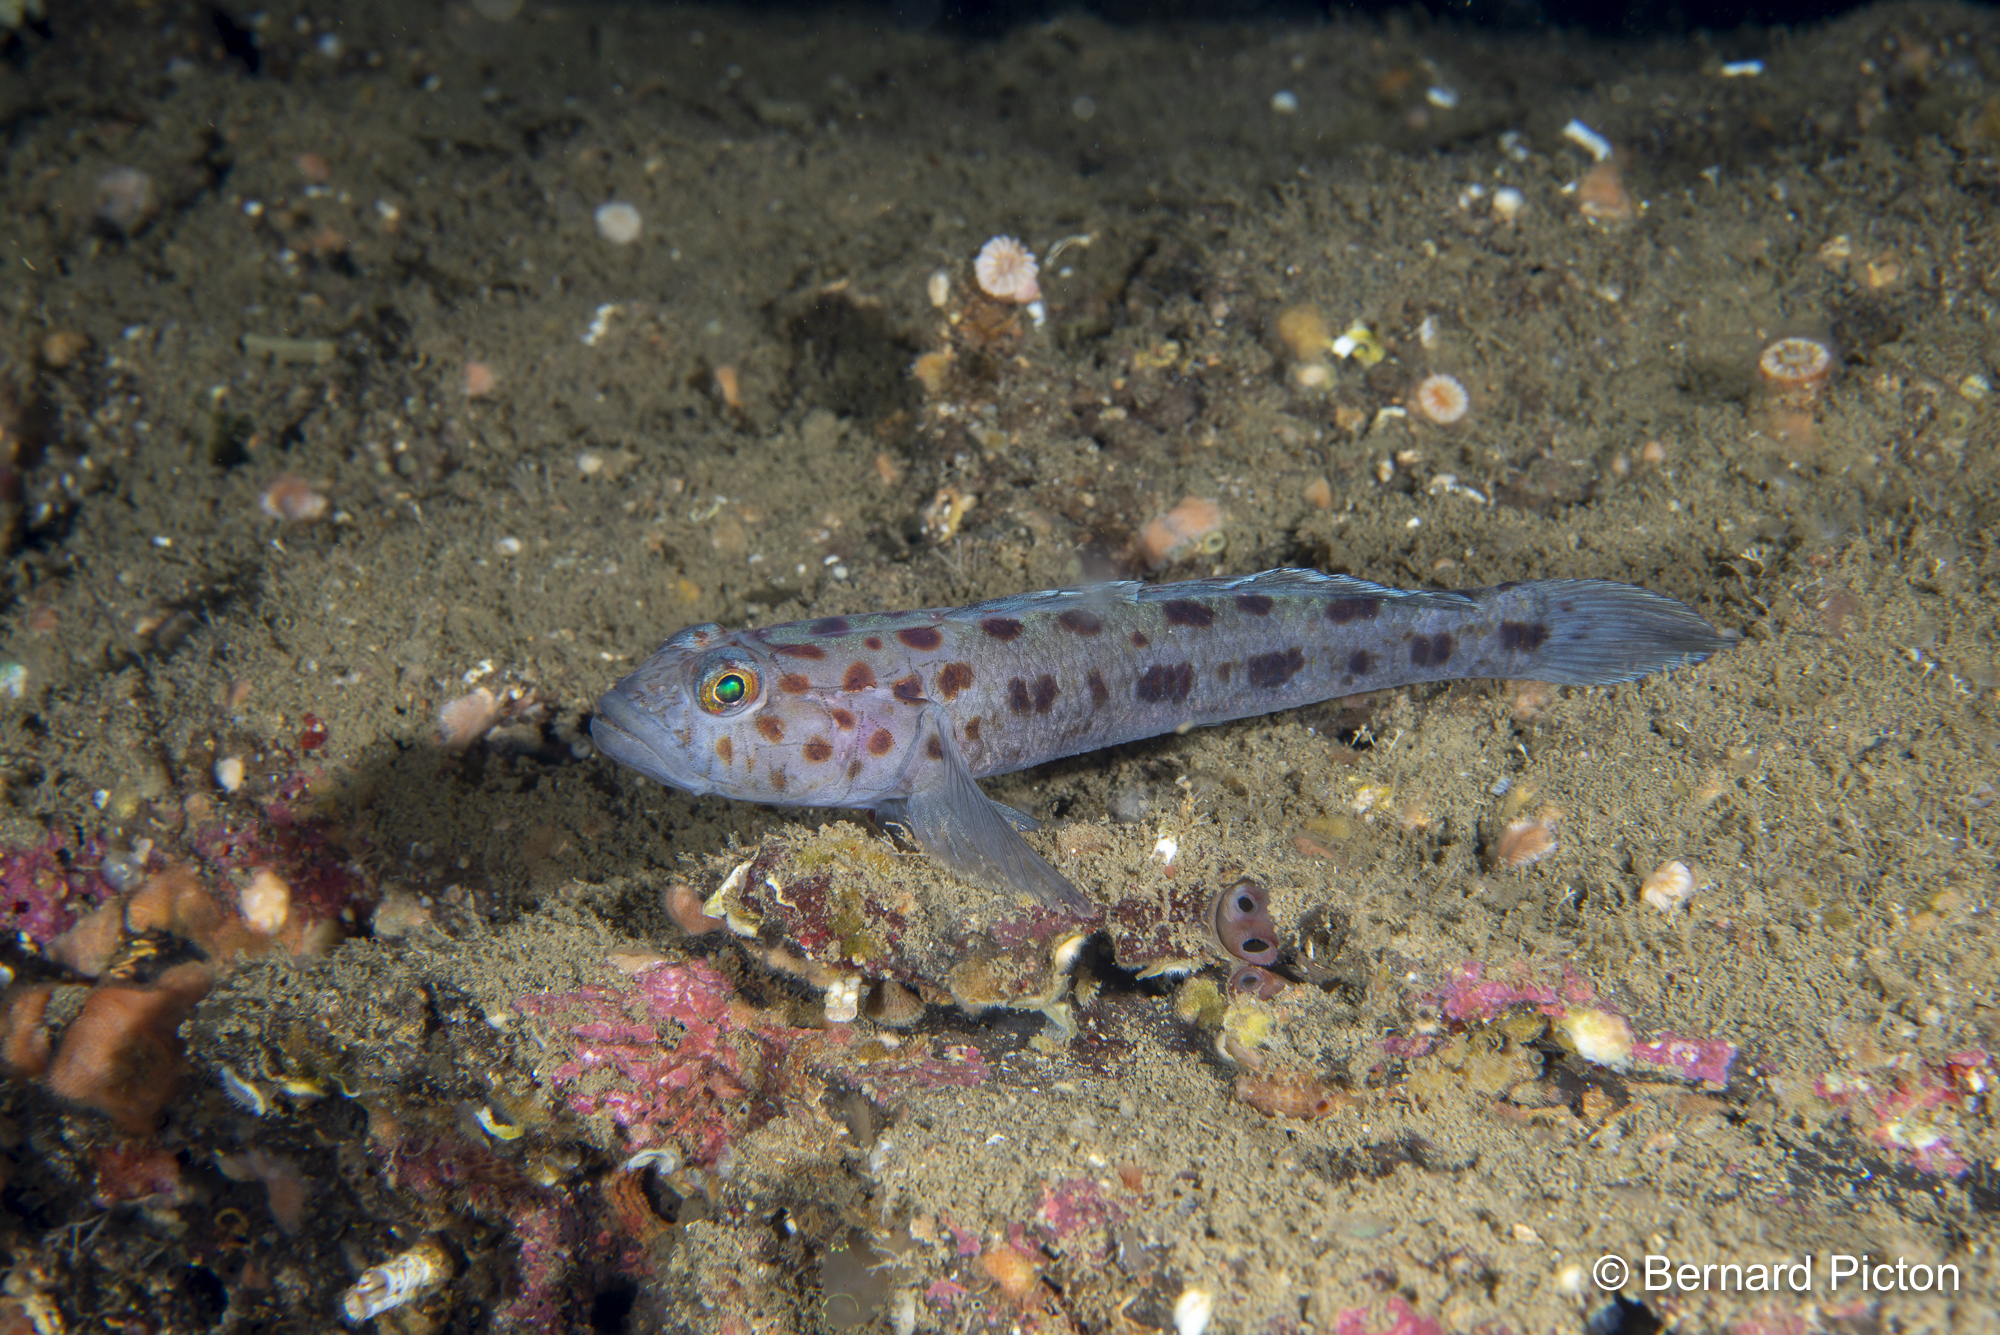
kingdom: Animalia
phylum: Chordata
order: Perciformes
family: Gobiidae
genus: Thorogobius
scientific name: Thorogobius ephippiatus
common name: Leopard-spotted goby
